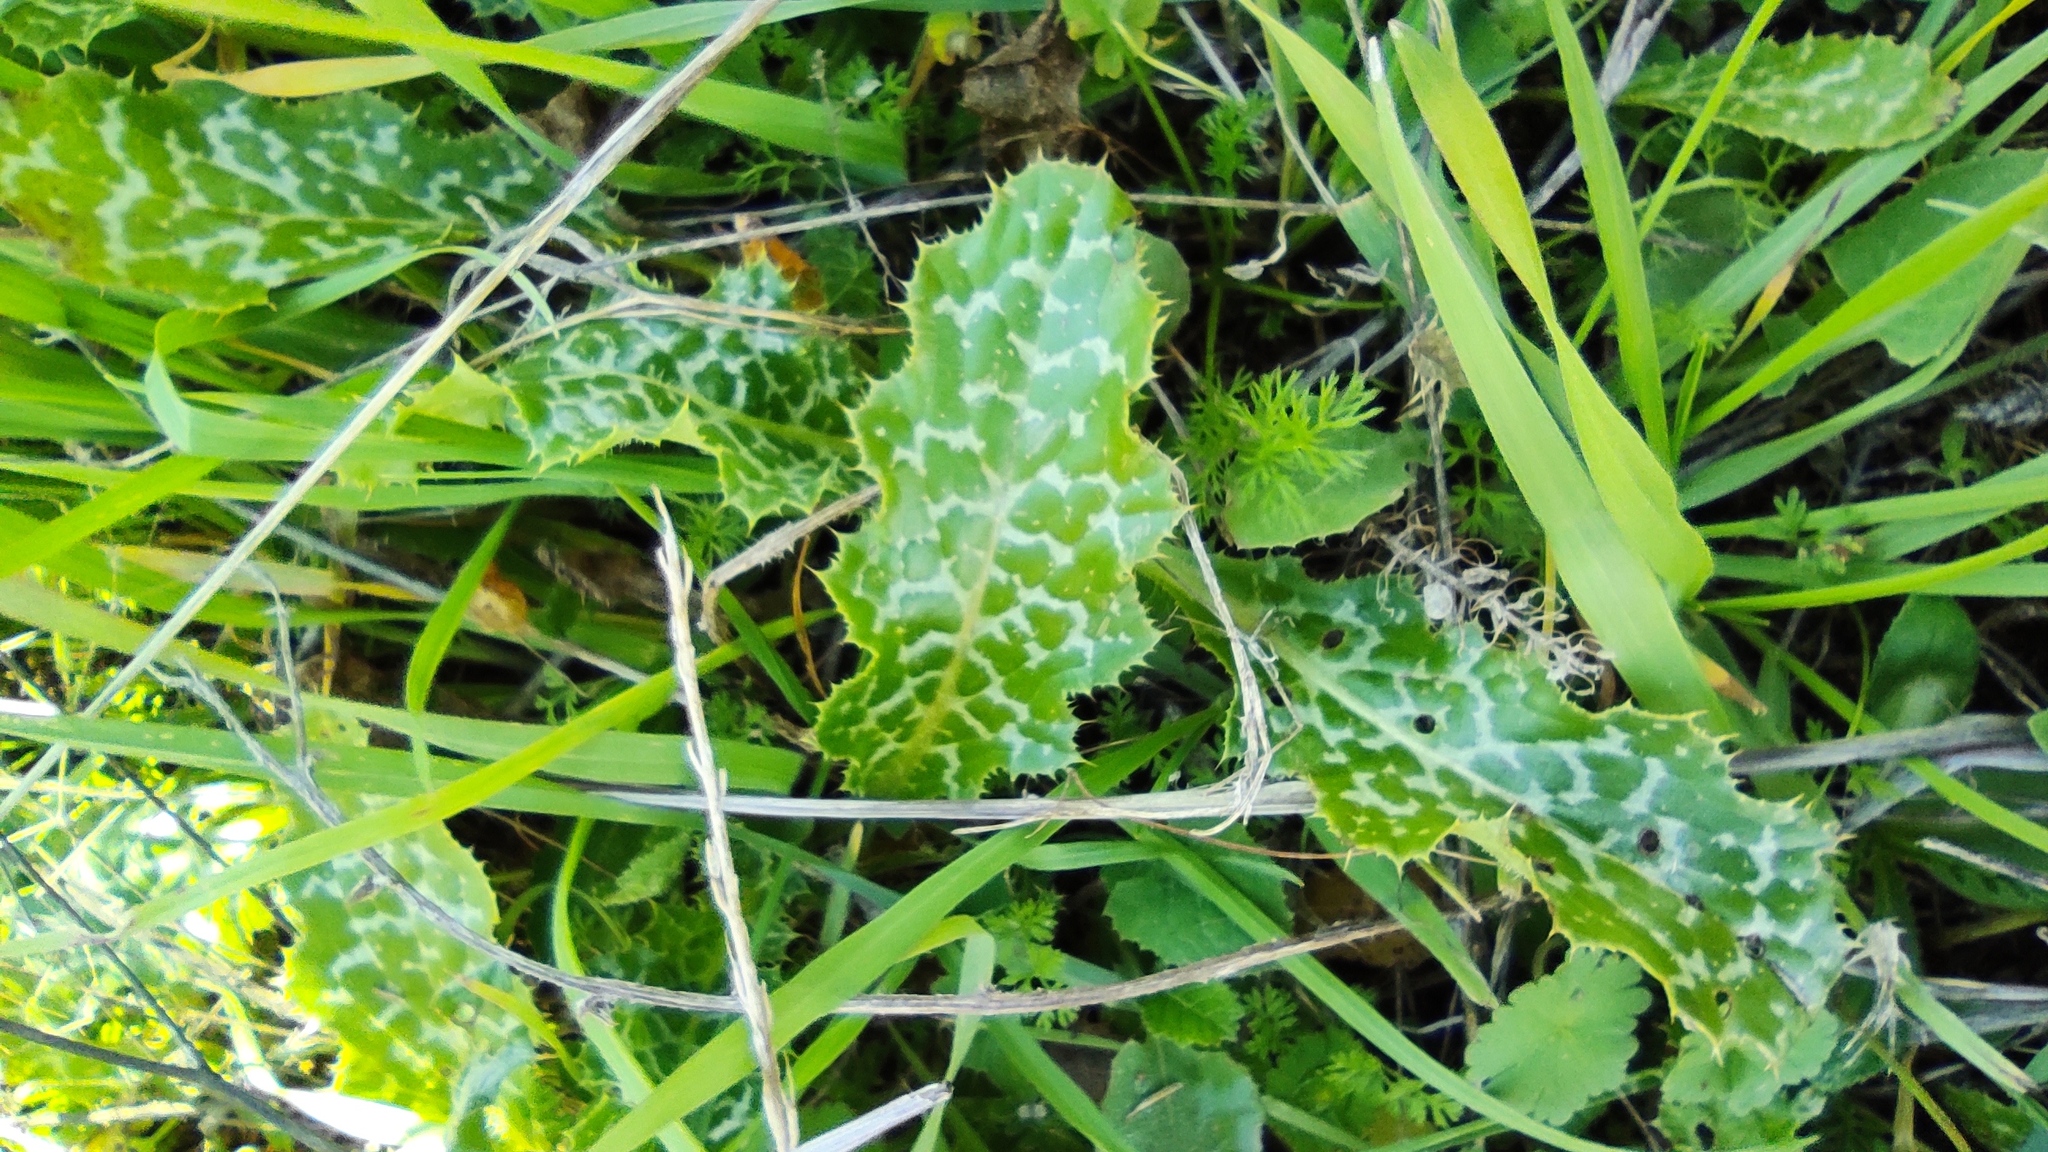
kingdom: Plantae
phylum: Tracheophyta
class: Magnoliopsida
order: Asterales
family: Asteraceae
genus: Silybum
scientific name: Silybum marianum
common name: Milk thistle
